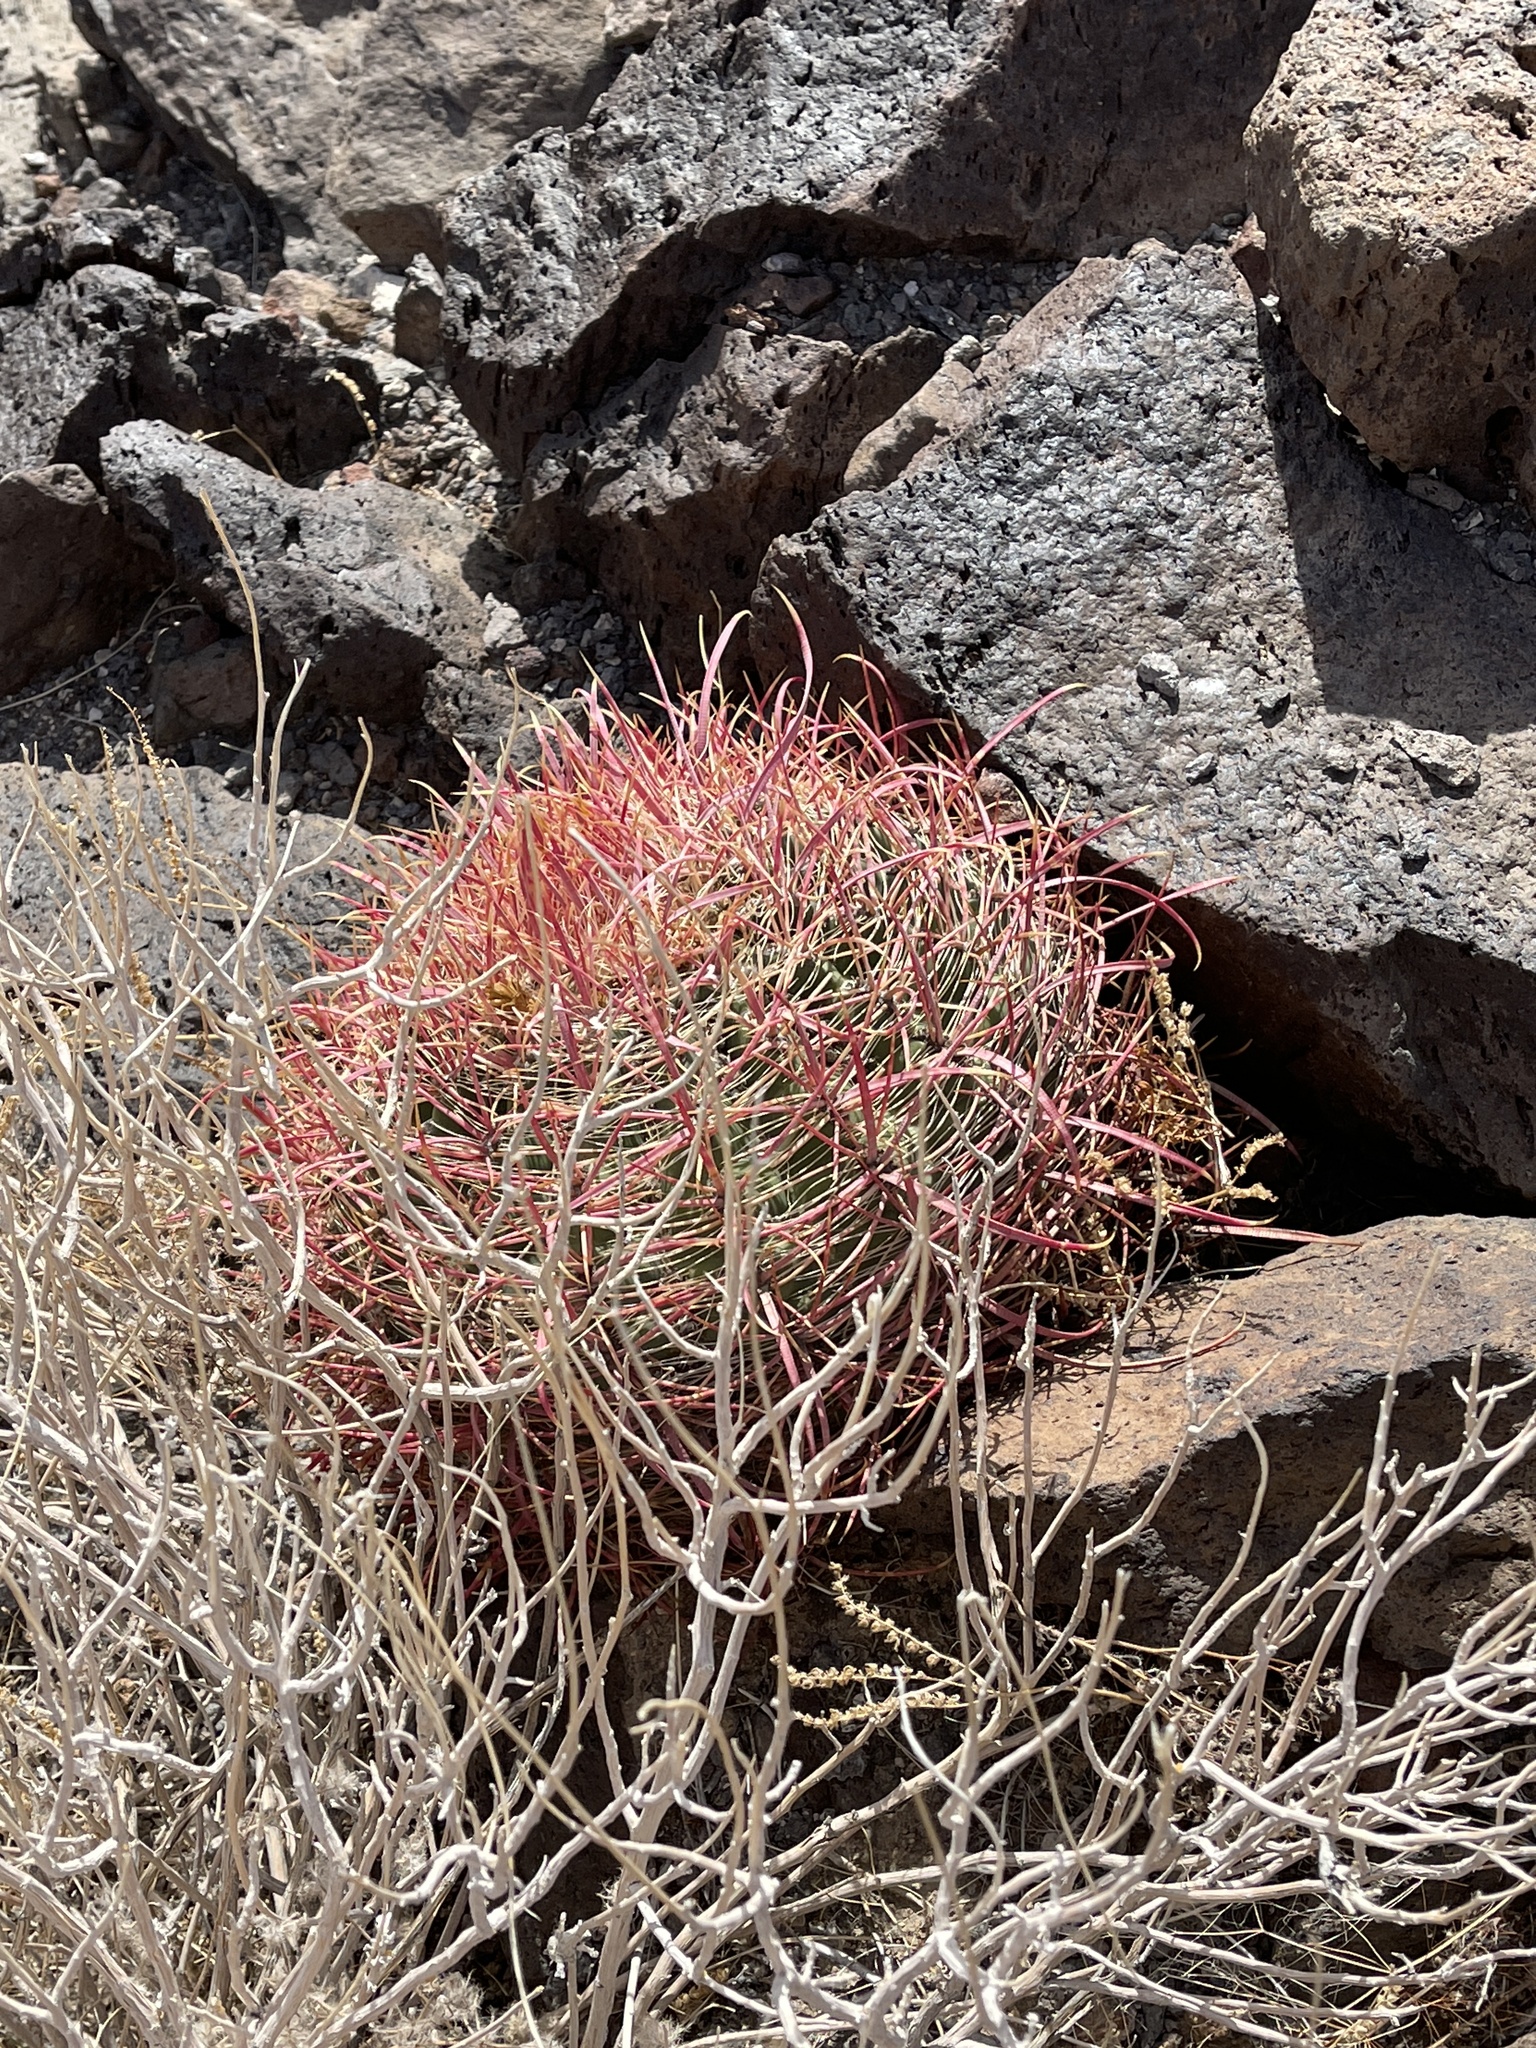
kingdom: Plantae
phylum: Tracheophyta
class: Magnoliopsida
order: Caryophyllales
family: Cactaceae
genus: Ferocactus
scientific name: Ferocactus cylindraceus
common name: California barrel cactus
